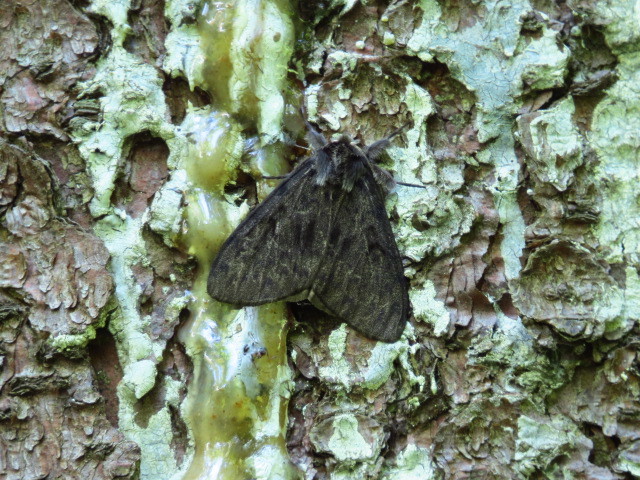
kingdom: Animalia
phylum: Arthropoda
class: Insecta
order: Lepidoptera
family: Erebidae
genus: Lymantria
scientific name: Lymantria monacha
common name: Black arches
